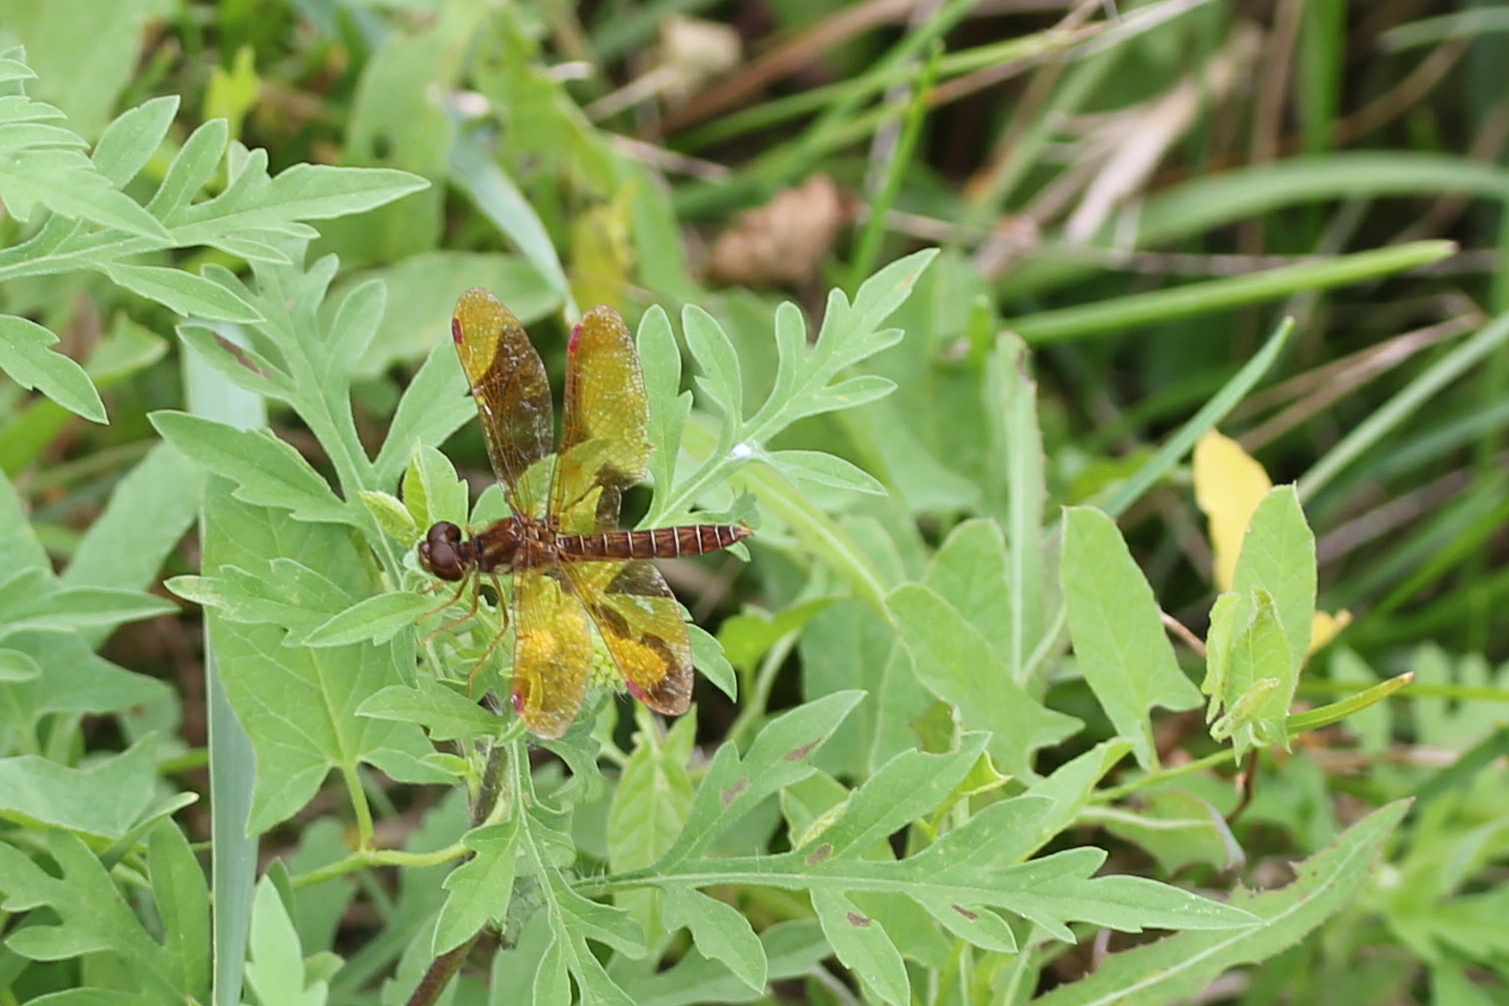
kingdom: Animalia
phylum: Arthropoda
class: Insecta
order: Odonata
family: Libellulidae
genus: Perithemis
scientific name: Perithemis tenera
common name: Eastern amberwing
